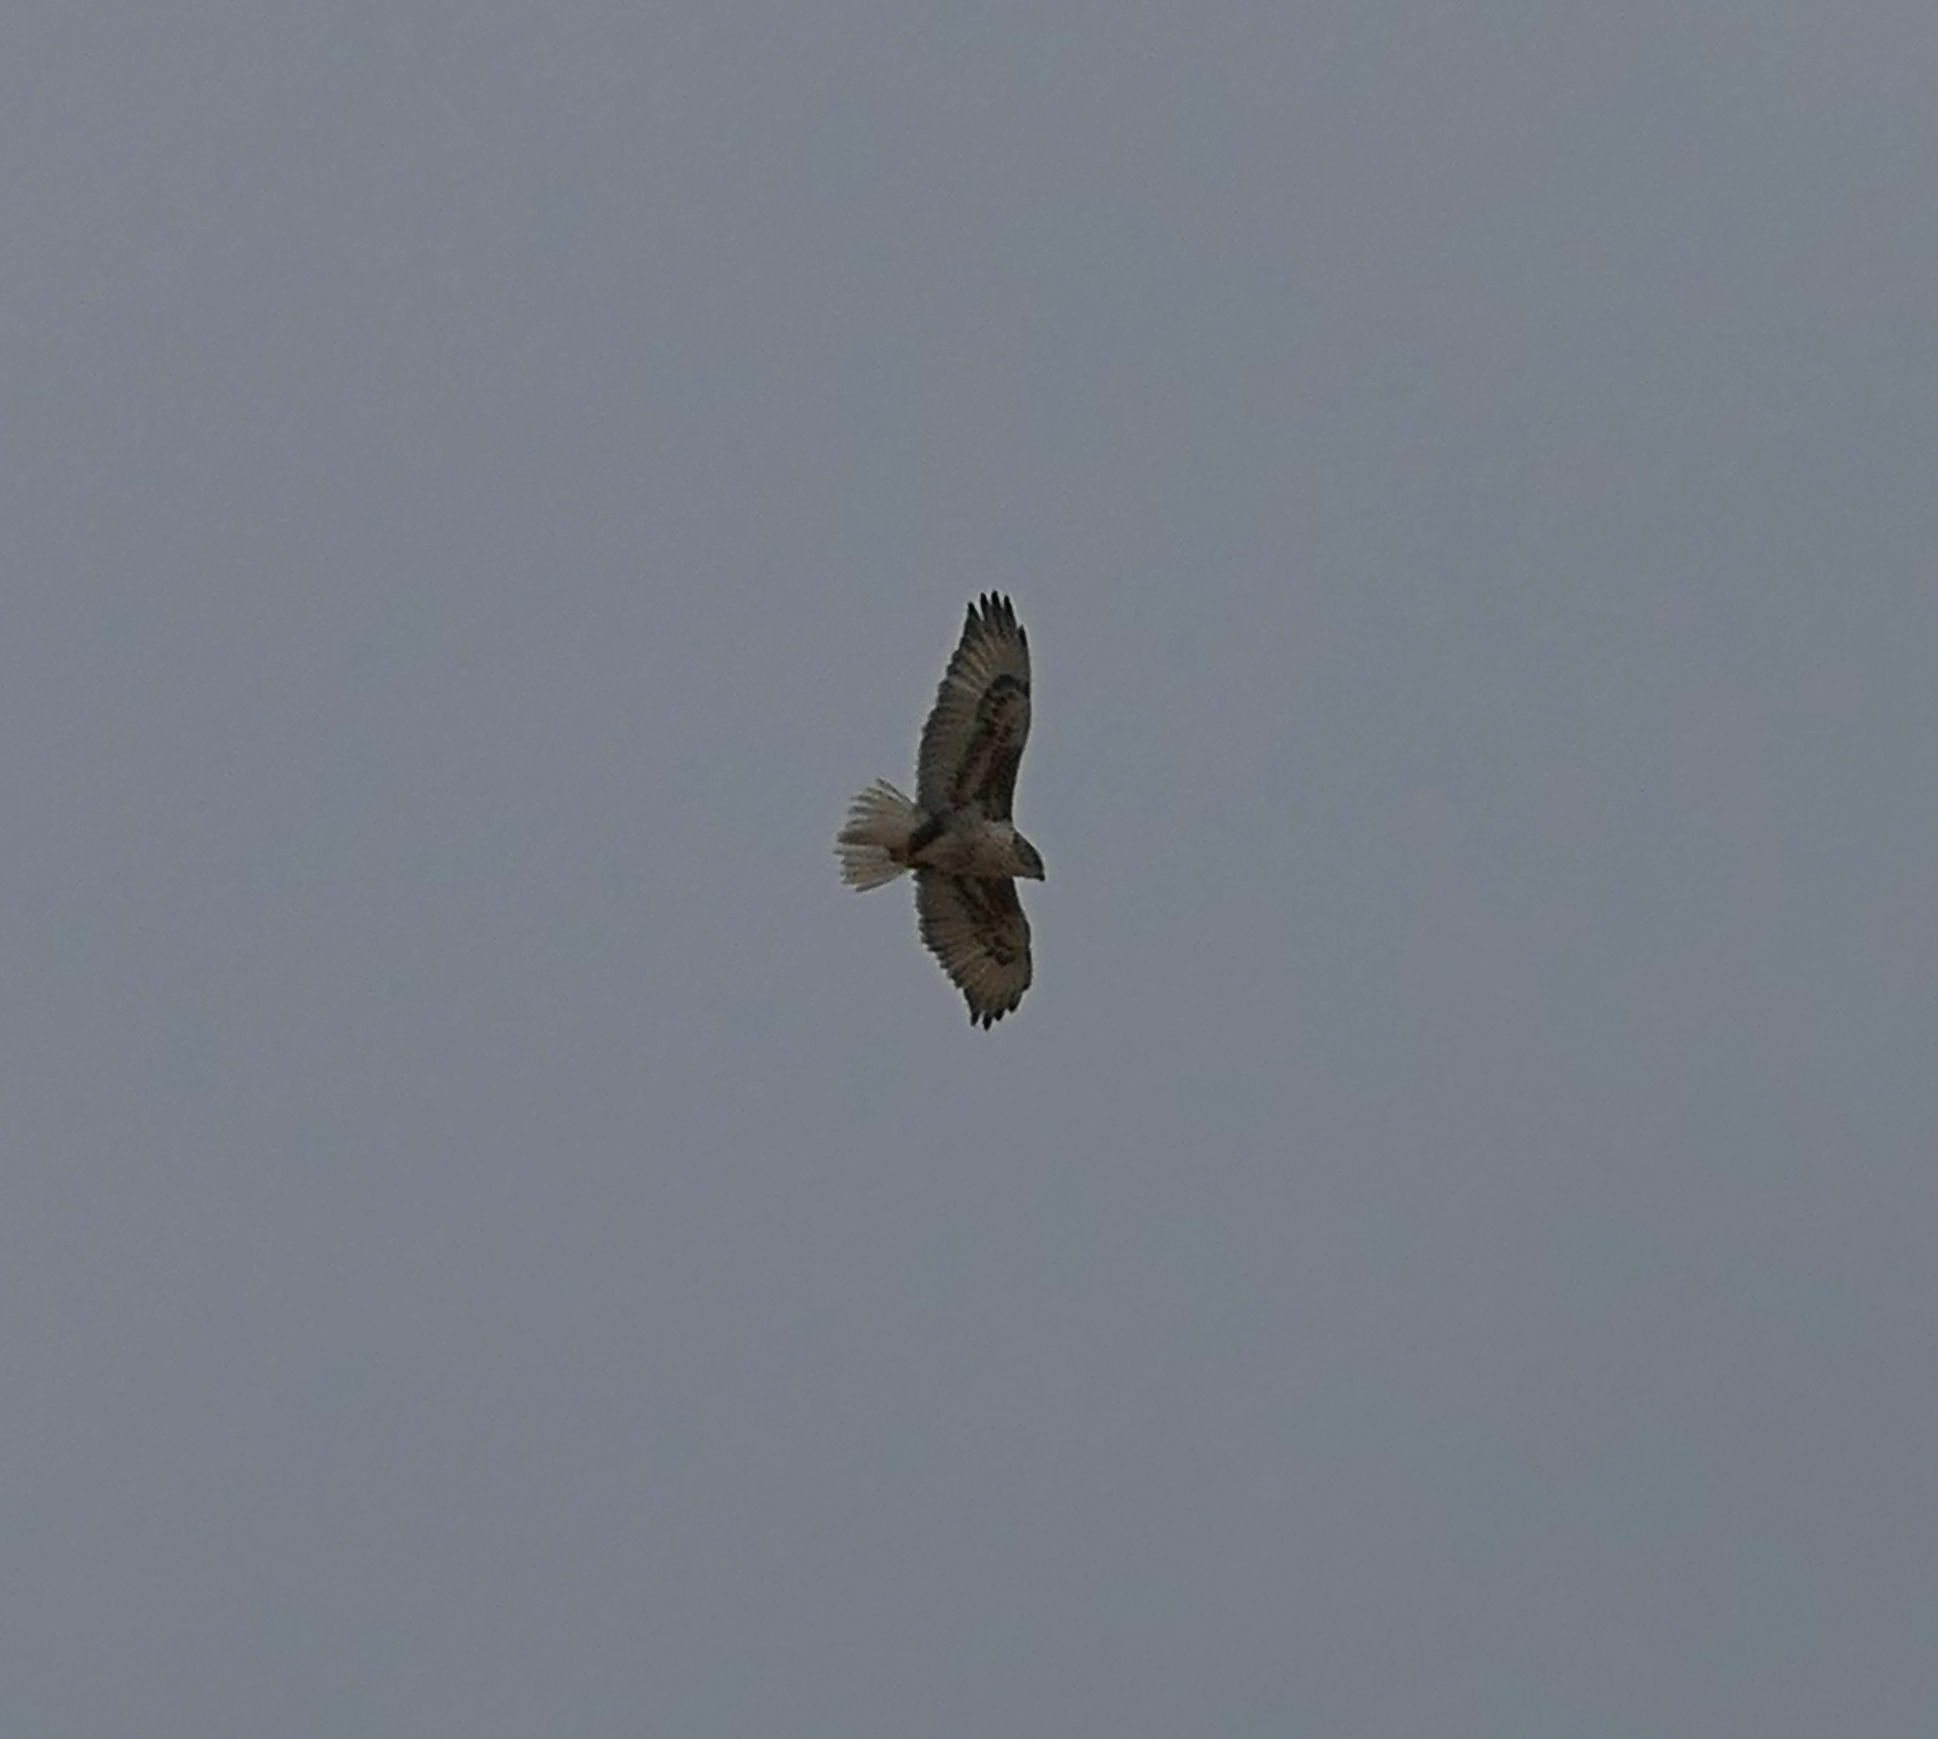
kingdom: Animalia
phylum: Chordata
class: Aves
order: Accipitriformes
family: Accipitridae
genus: Buteo
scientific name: Buteo regalis
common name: Ferruginous hawk
